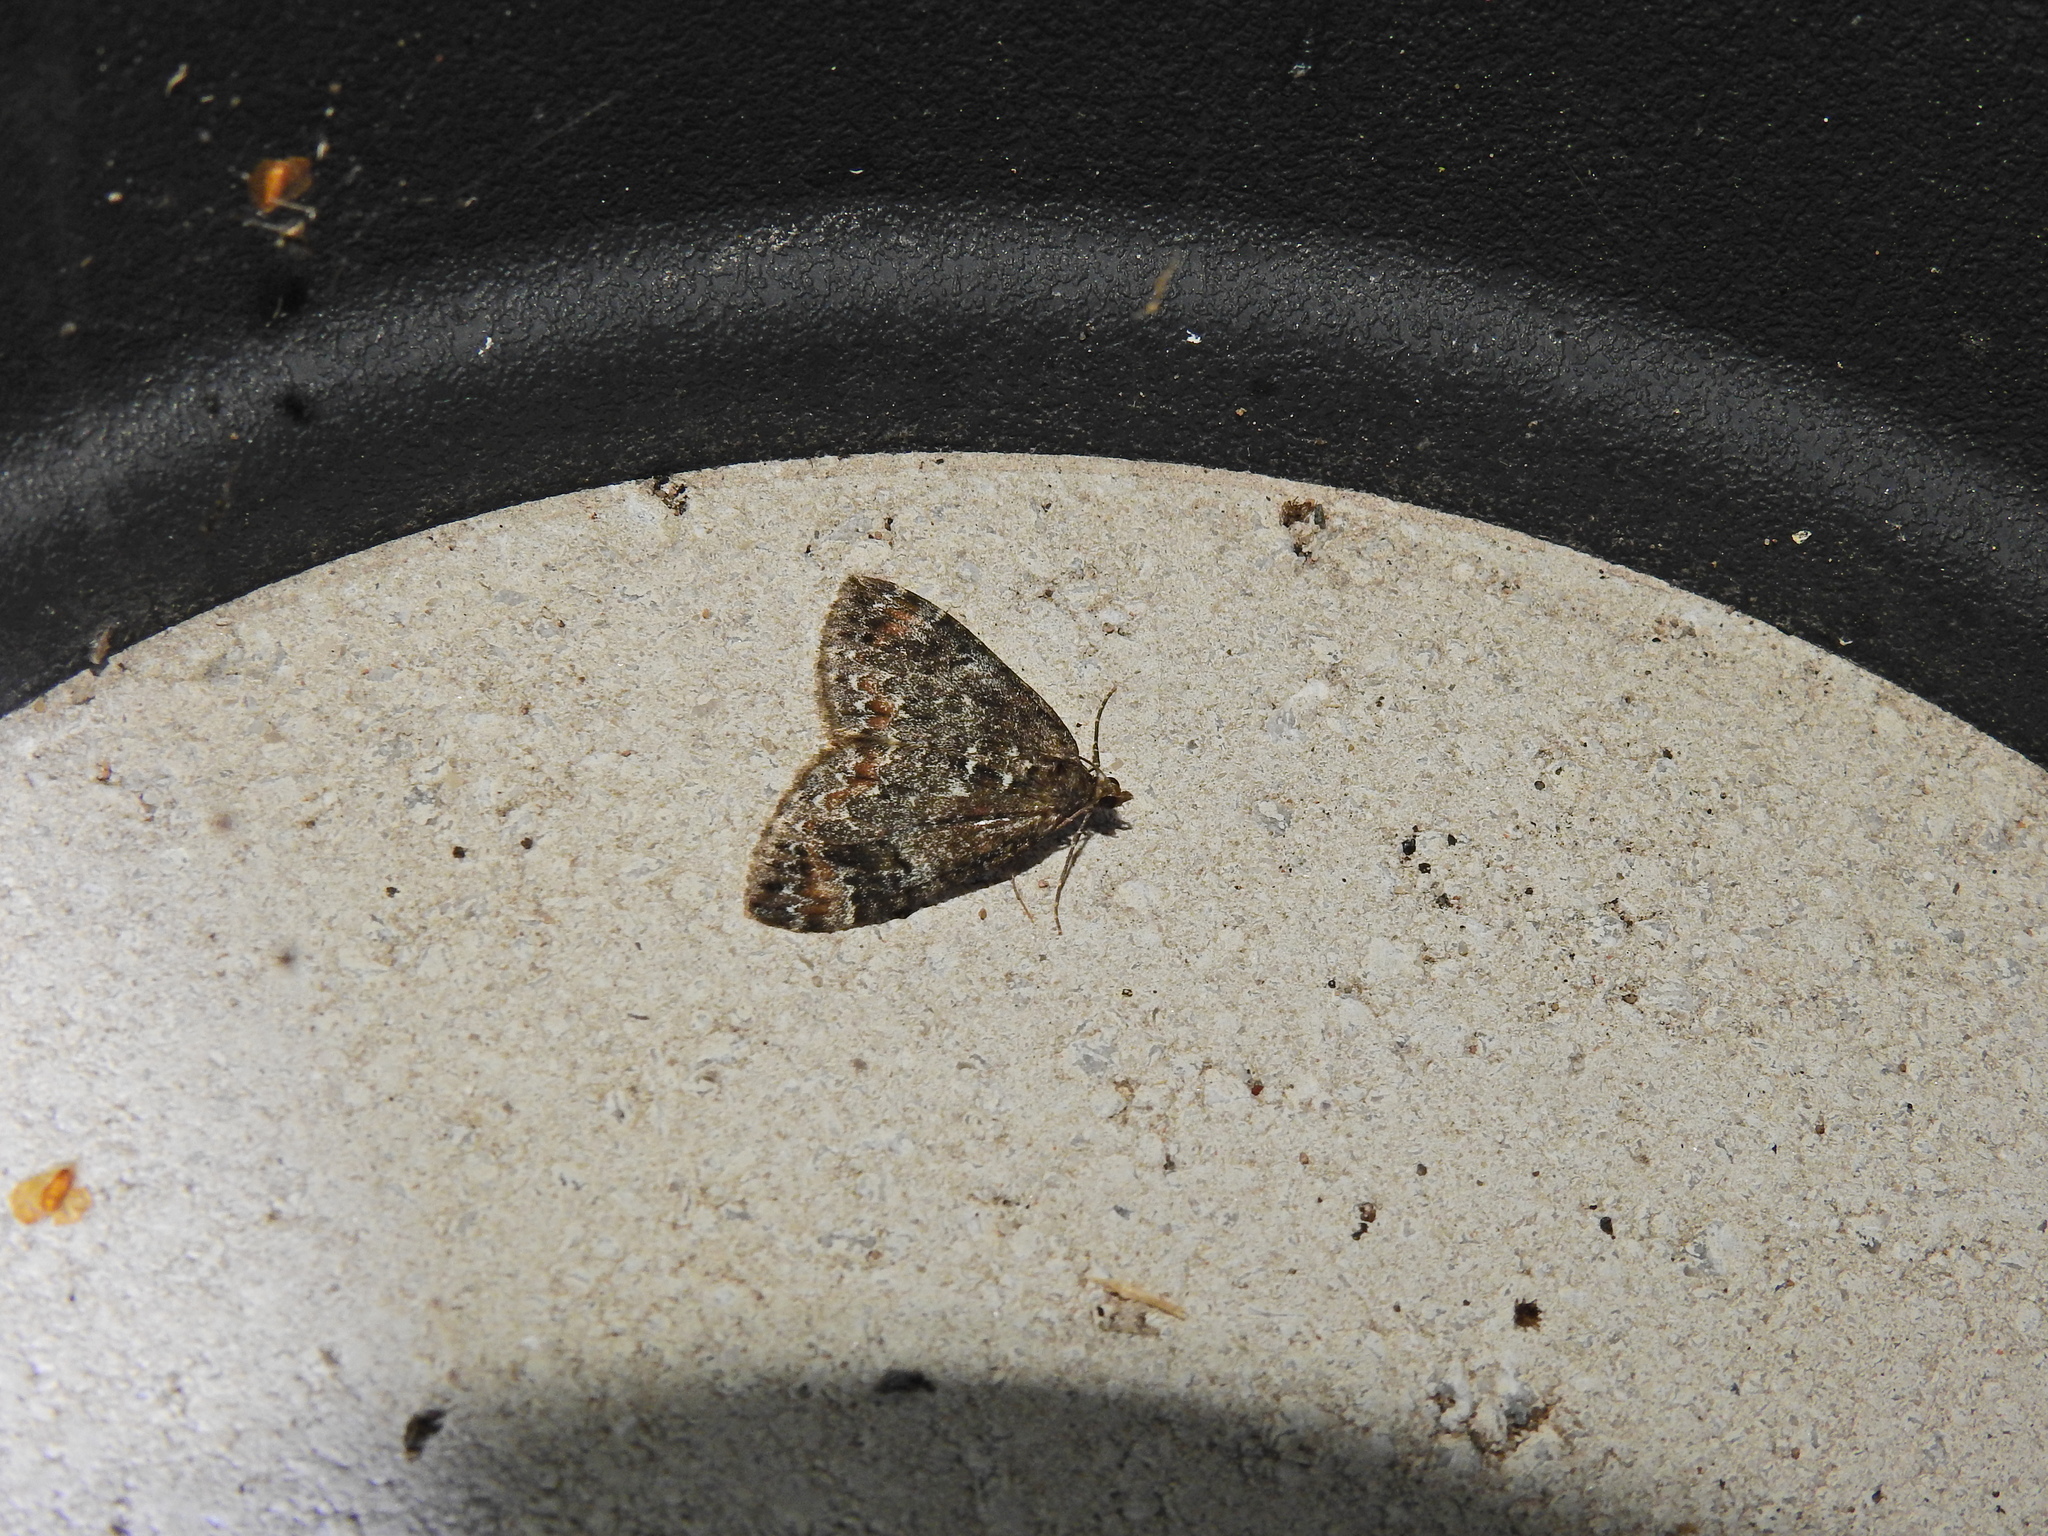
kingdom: Animalia
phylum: Arthropoda
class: Insecta
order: Lepidoptera
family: Geometridae
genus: Dysstroma
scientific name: Dysstroma truncata
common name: Common marbled carpet
